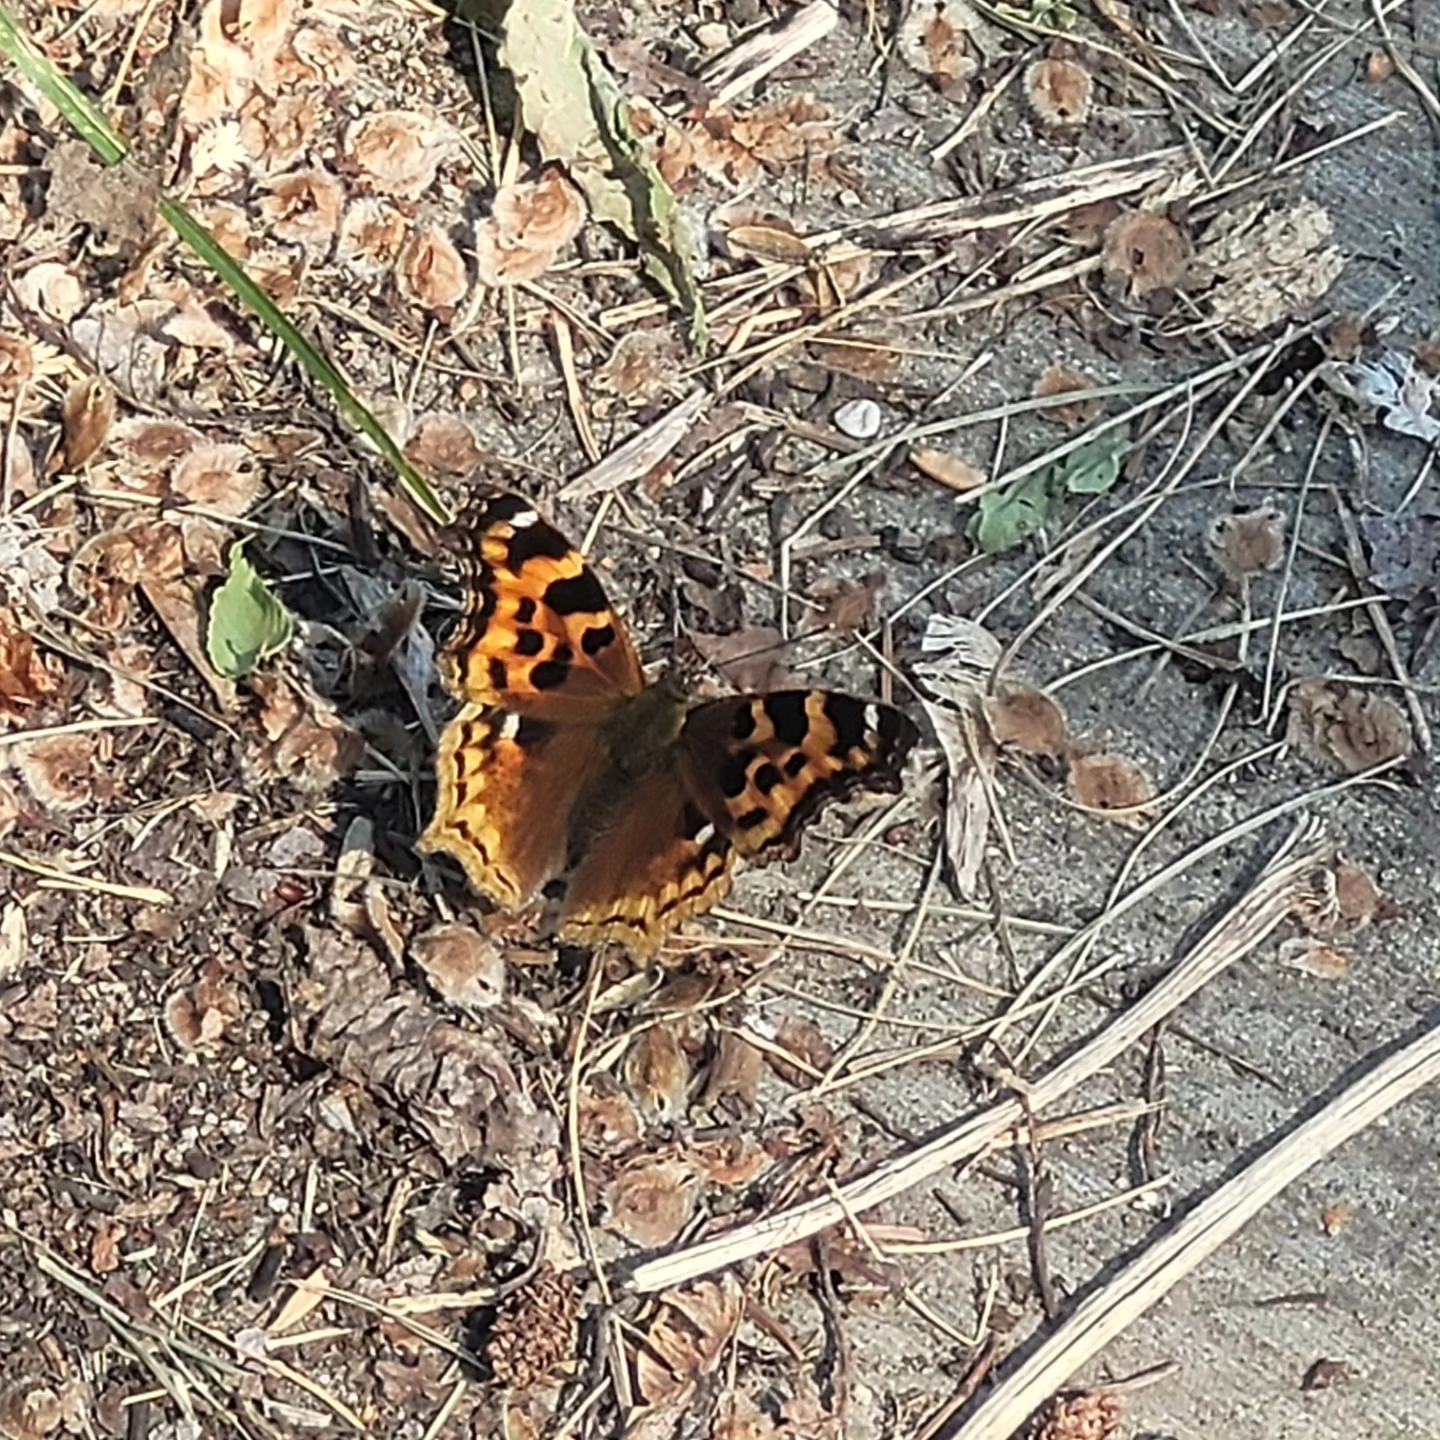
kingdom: Animalia
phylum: Arthropoda
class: Insecta
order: Lepidoptera
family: Nymphalidae
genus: Polygonia
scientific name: Polygonia vaualbum
